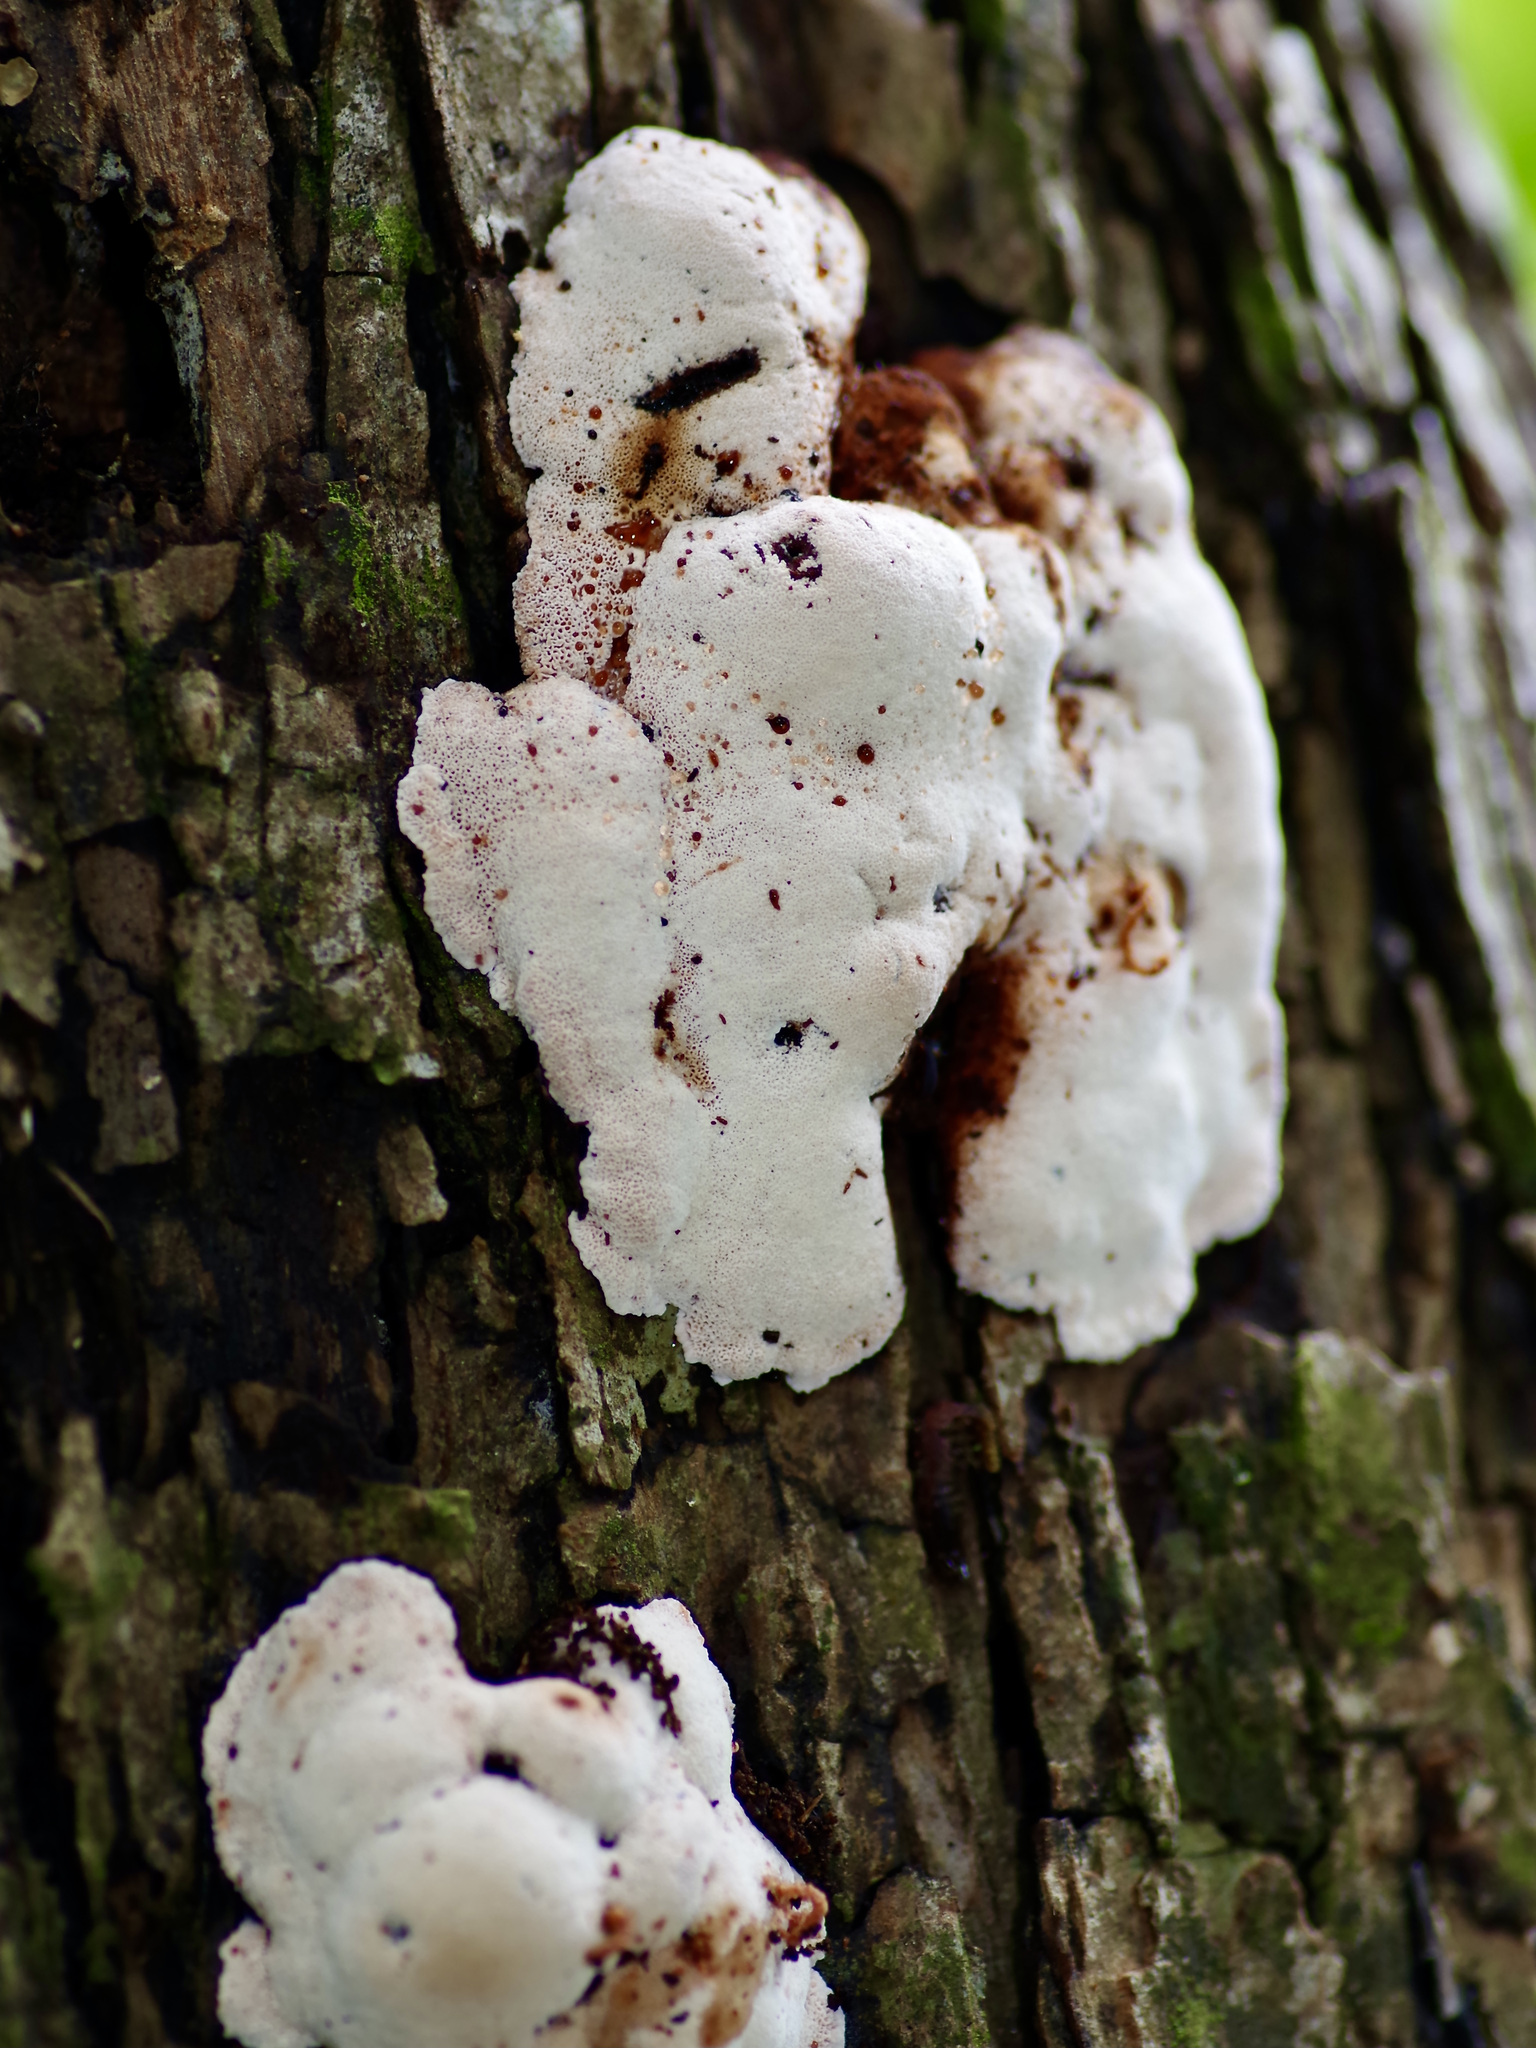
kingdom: Fungi
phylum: Basidiomycota
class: Agaricomycetes
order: Polyporales
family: Podoscyphaceae
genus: Abortiporus
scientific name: Abortiporus biennis
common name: Blushing rosette
